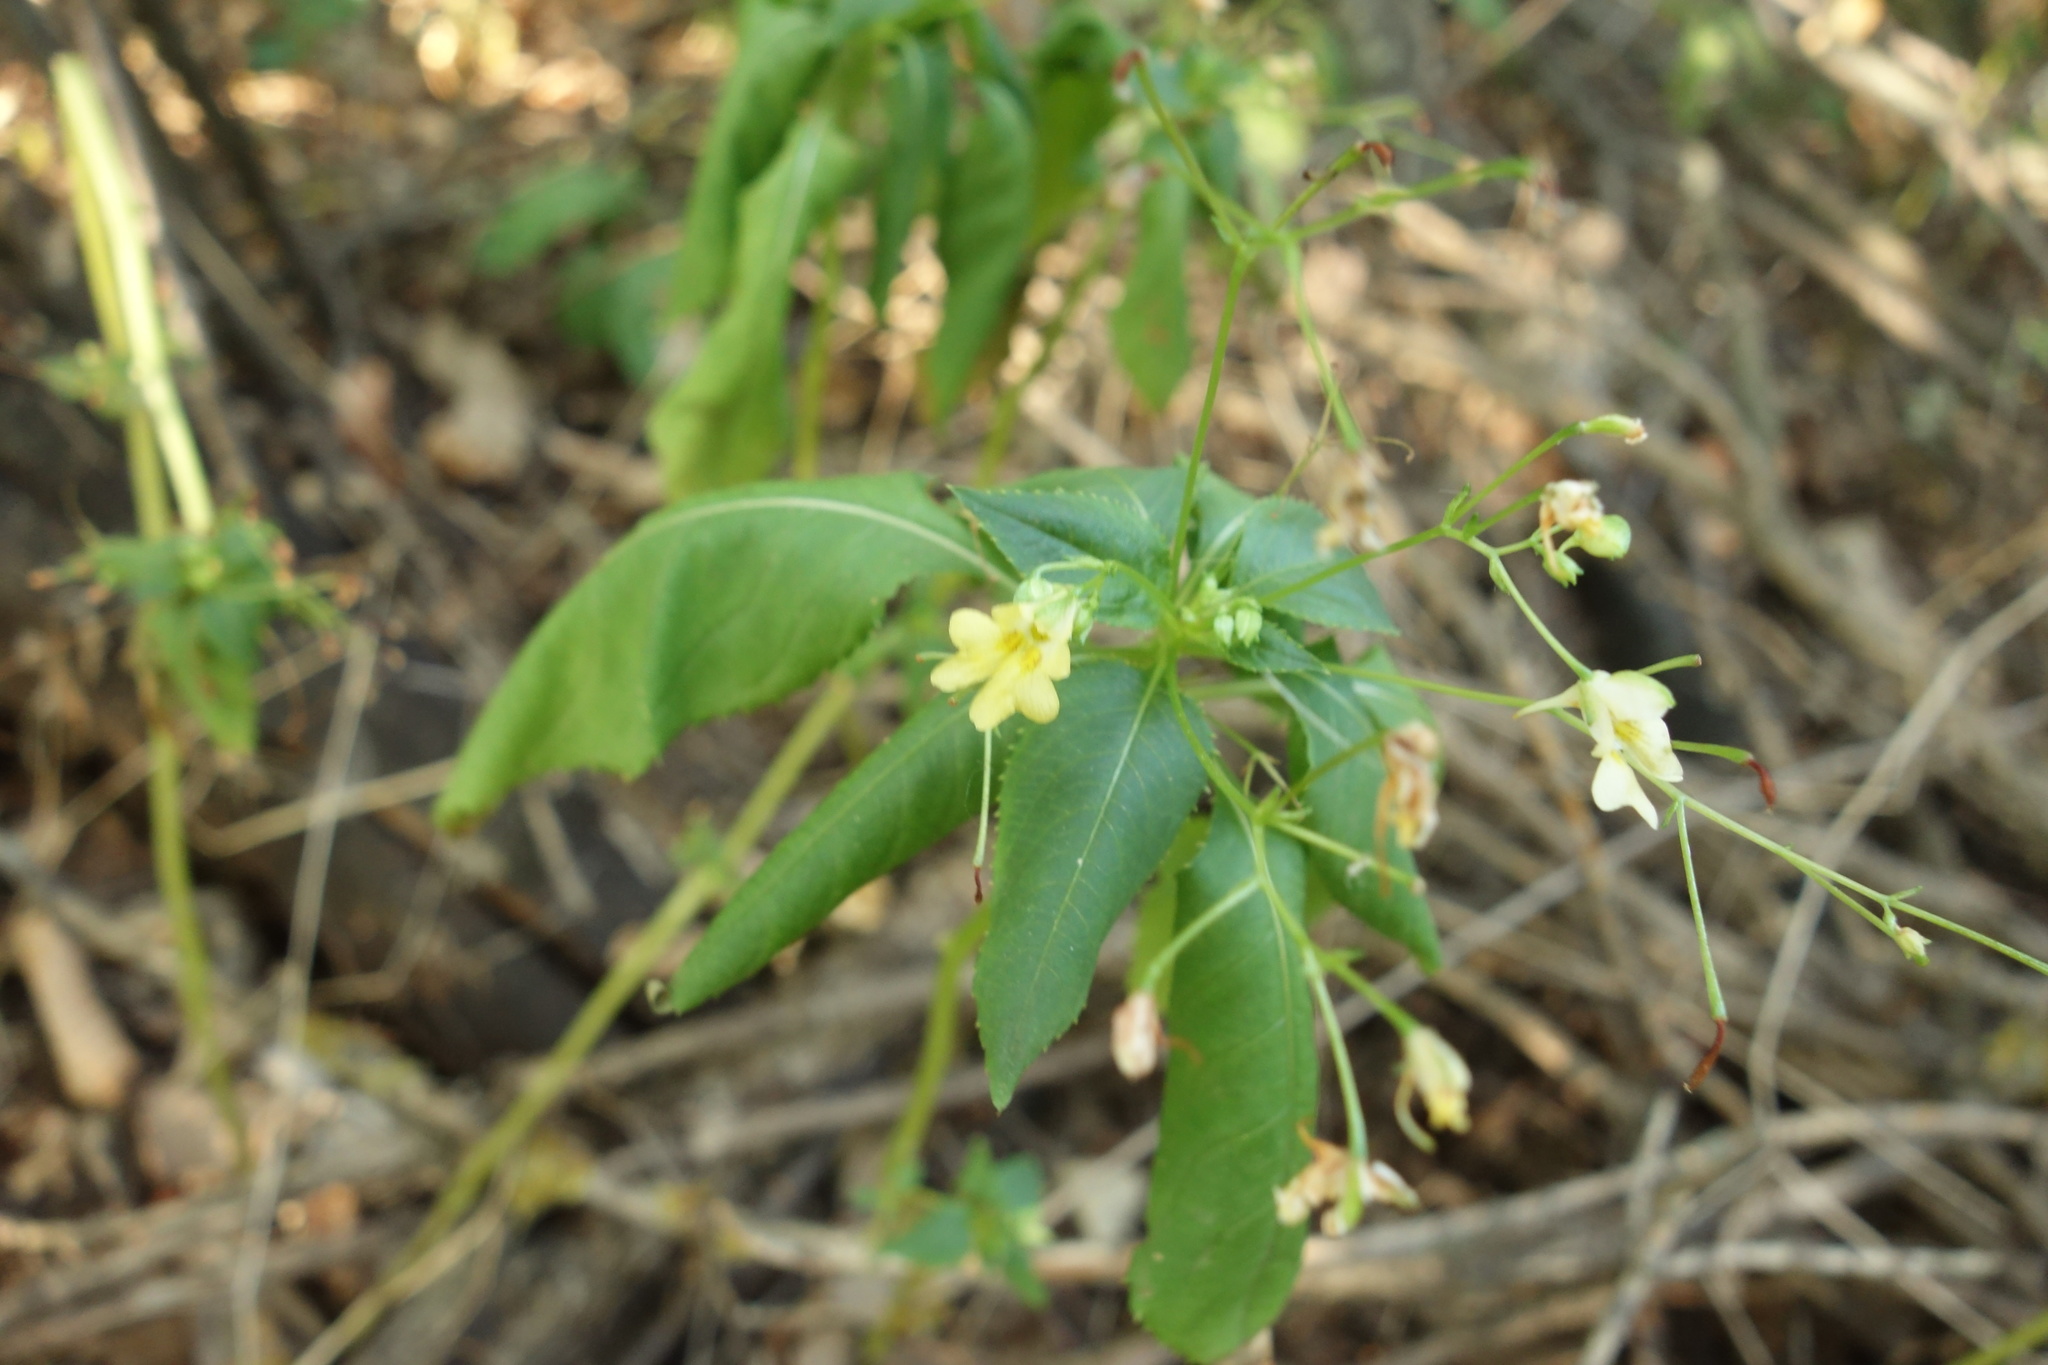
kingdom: Plantae
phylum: Tracheophyta
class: Magnoliopsida
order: Ericales
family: Balsaminaceae
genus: Impatiens
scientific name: Impatiens parviflora
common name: Small balsam
